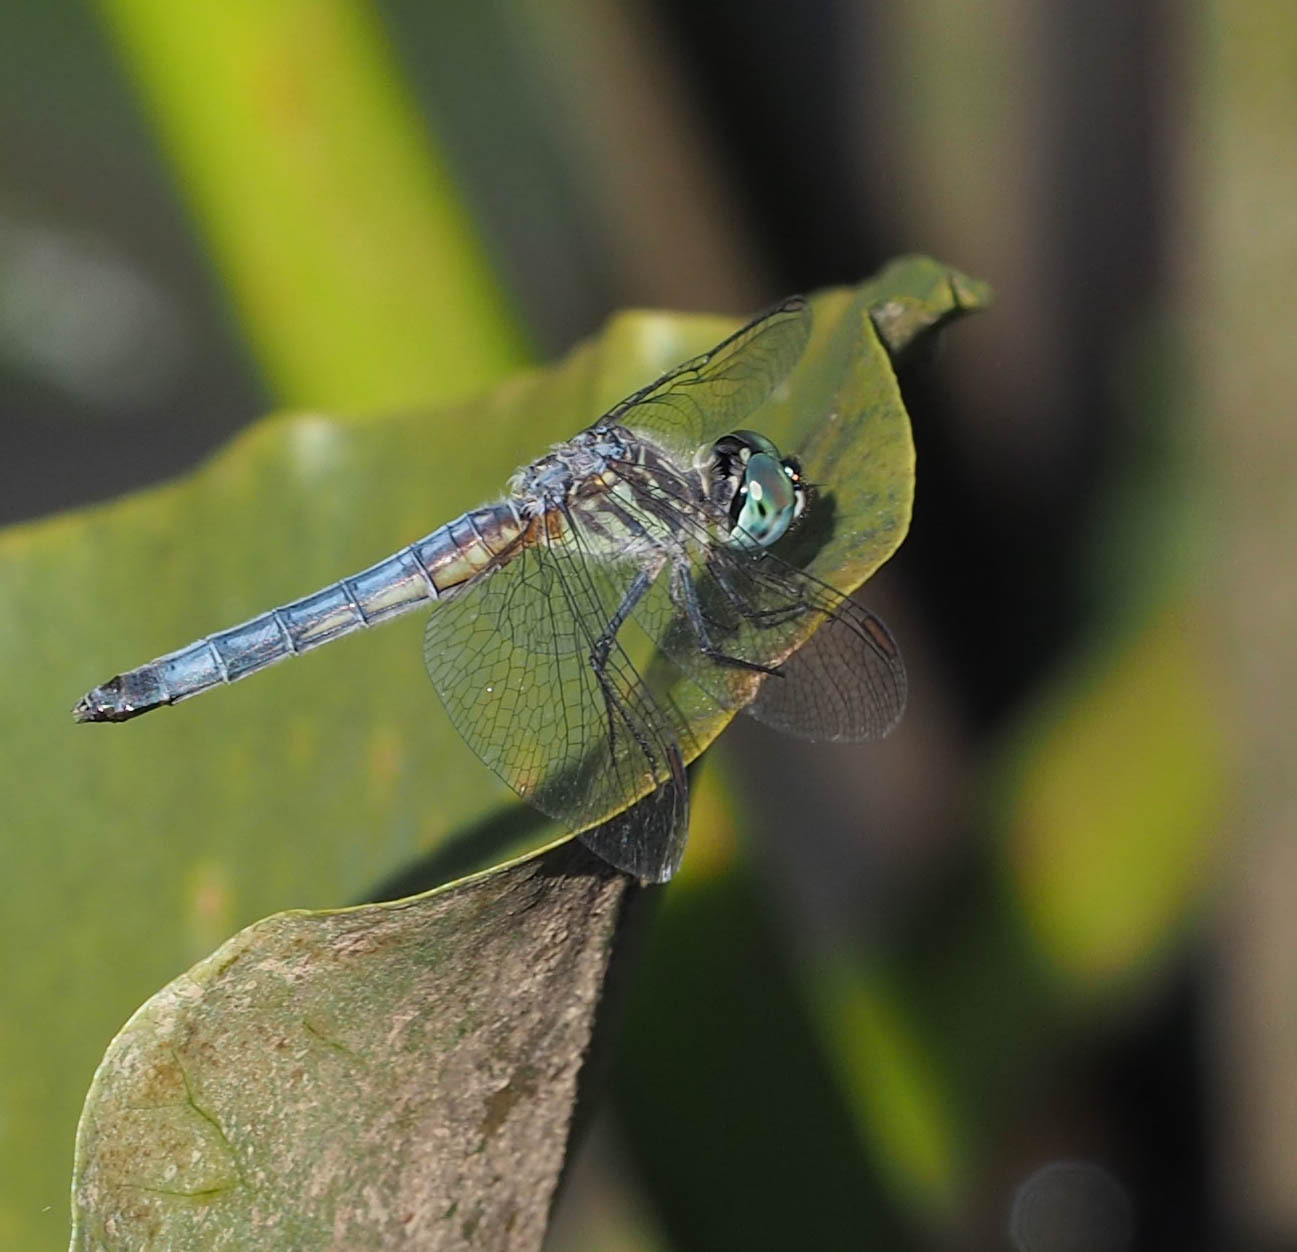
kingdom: Animalia
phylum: Arthropoda
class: Insecta
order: Odonata
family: Libellulidae
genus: Pachydiplax
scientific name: Pachydiplax longipennis
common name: Blue dasher
